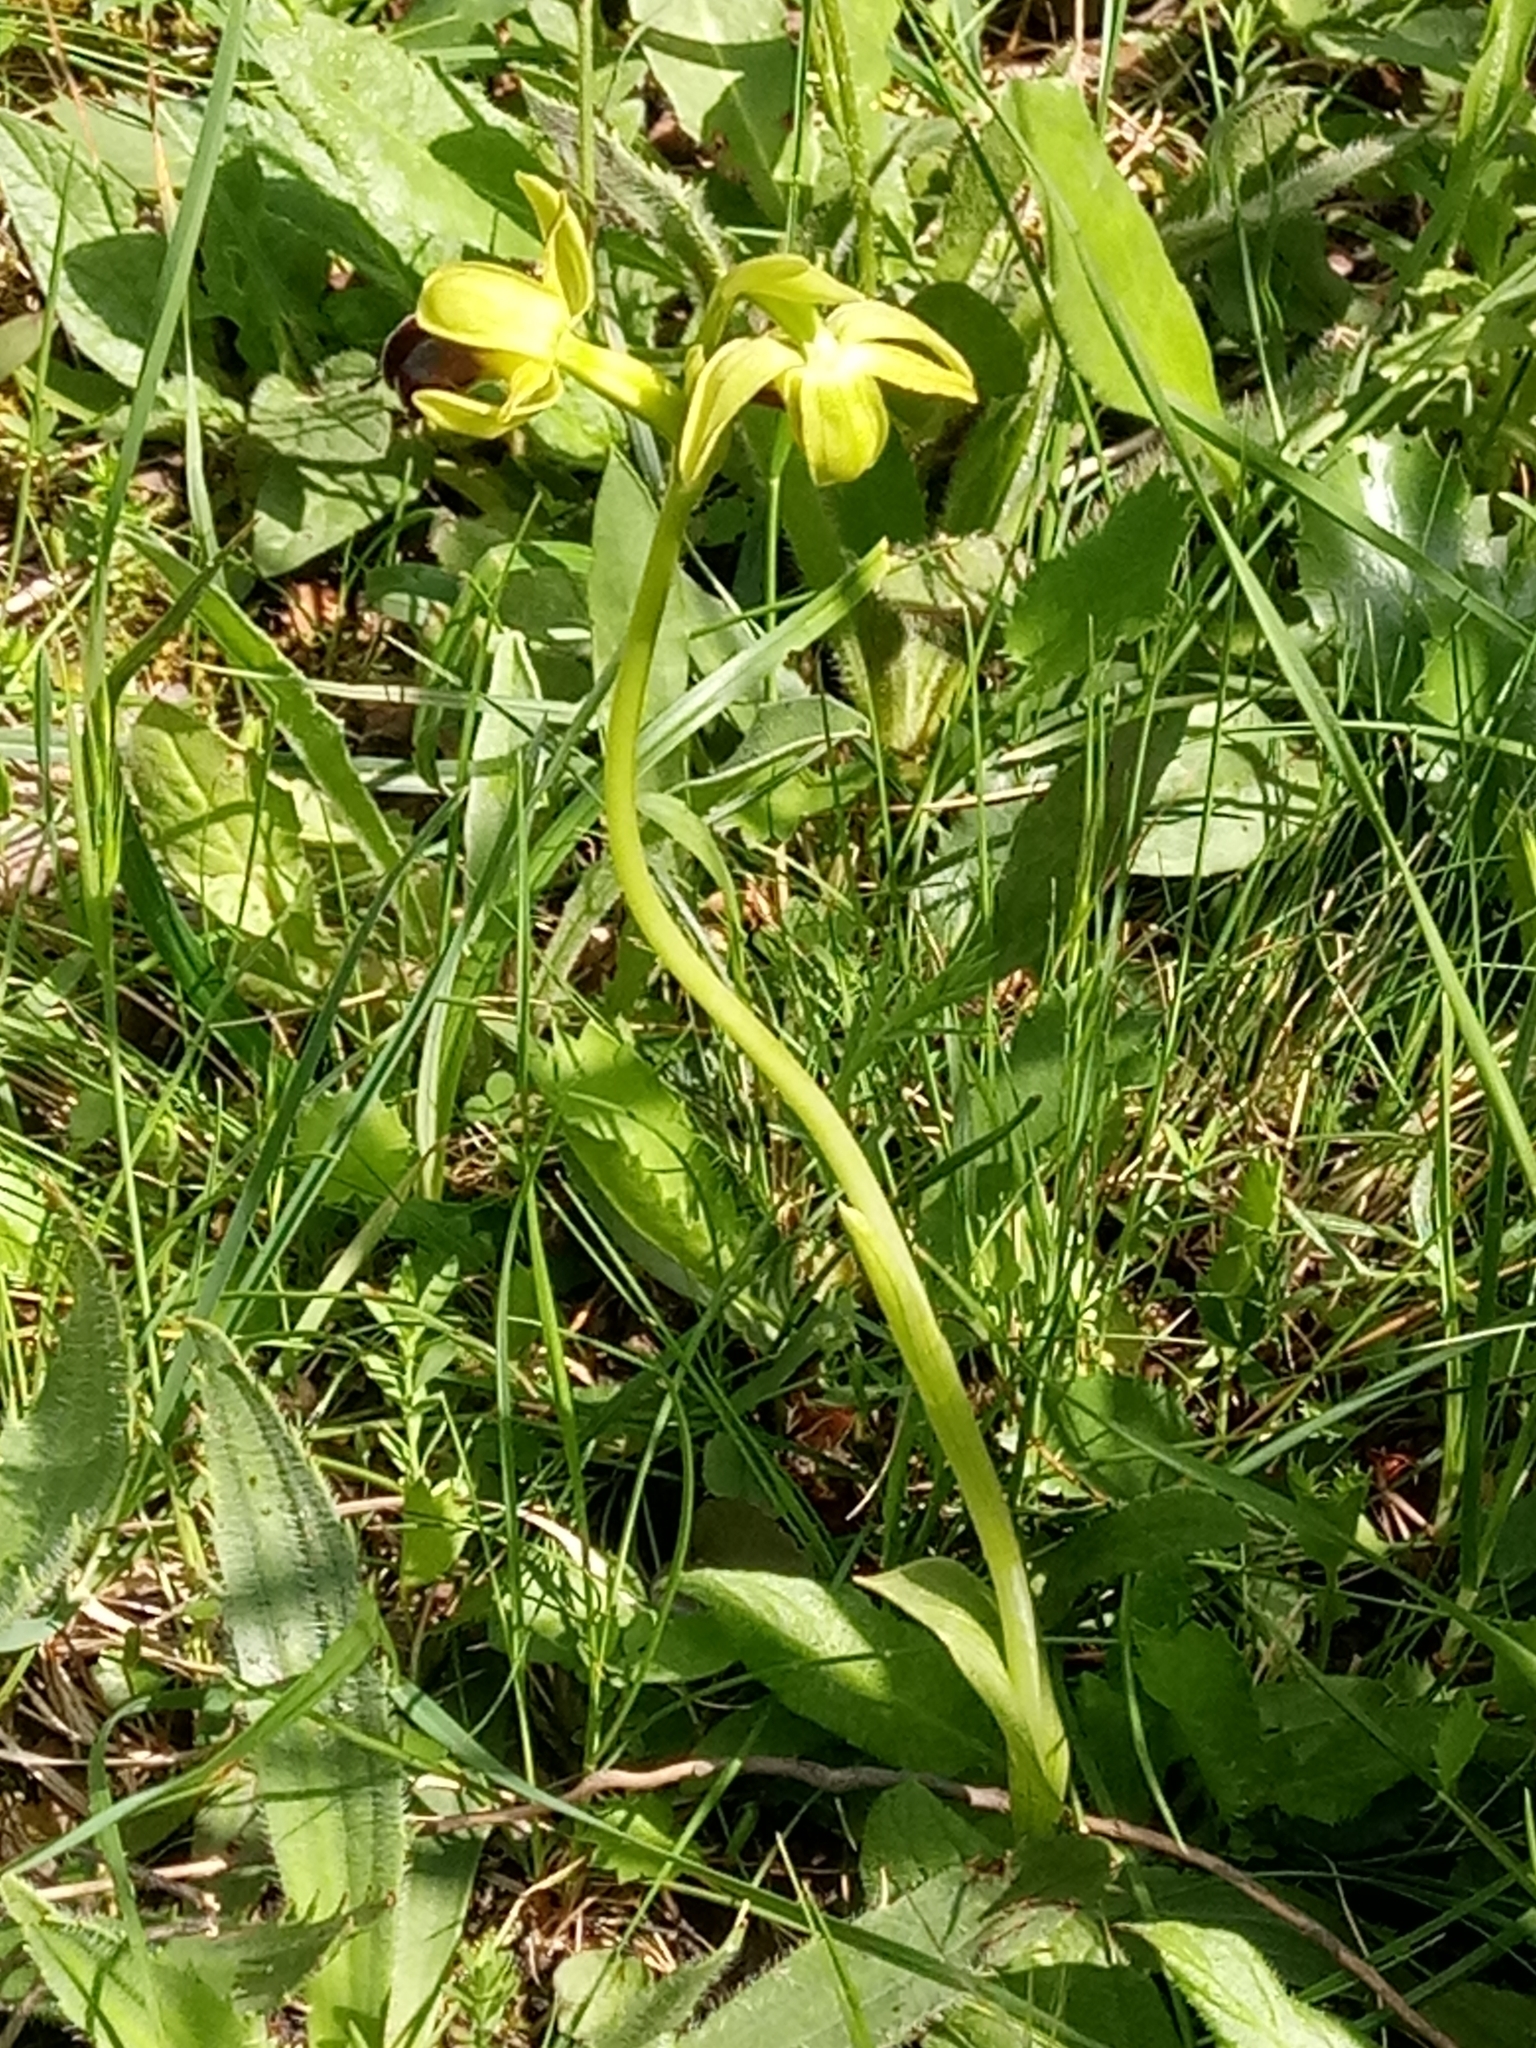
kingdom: Plantae
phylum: Tracheophyta
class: Liliopsida
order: Asparagales
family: Orchidaceae
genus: Ophrys
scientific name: Ophrys fusca
